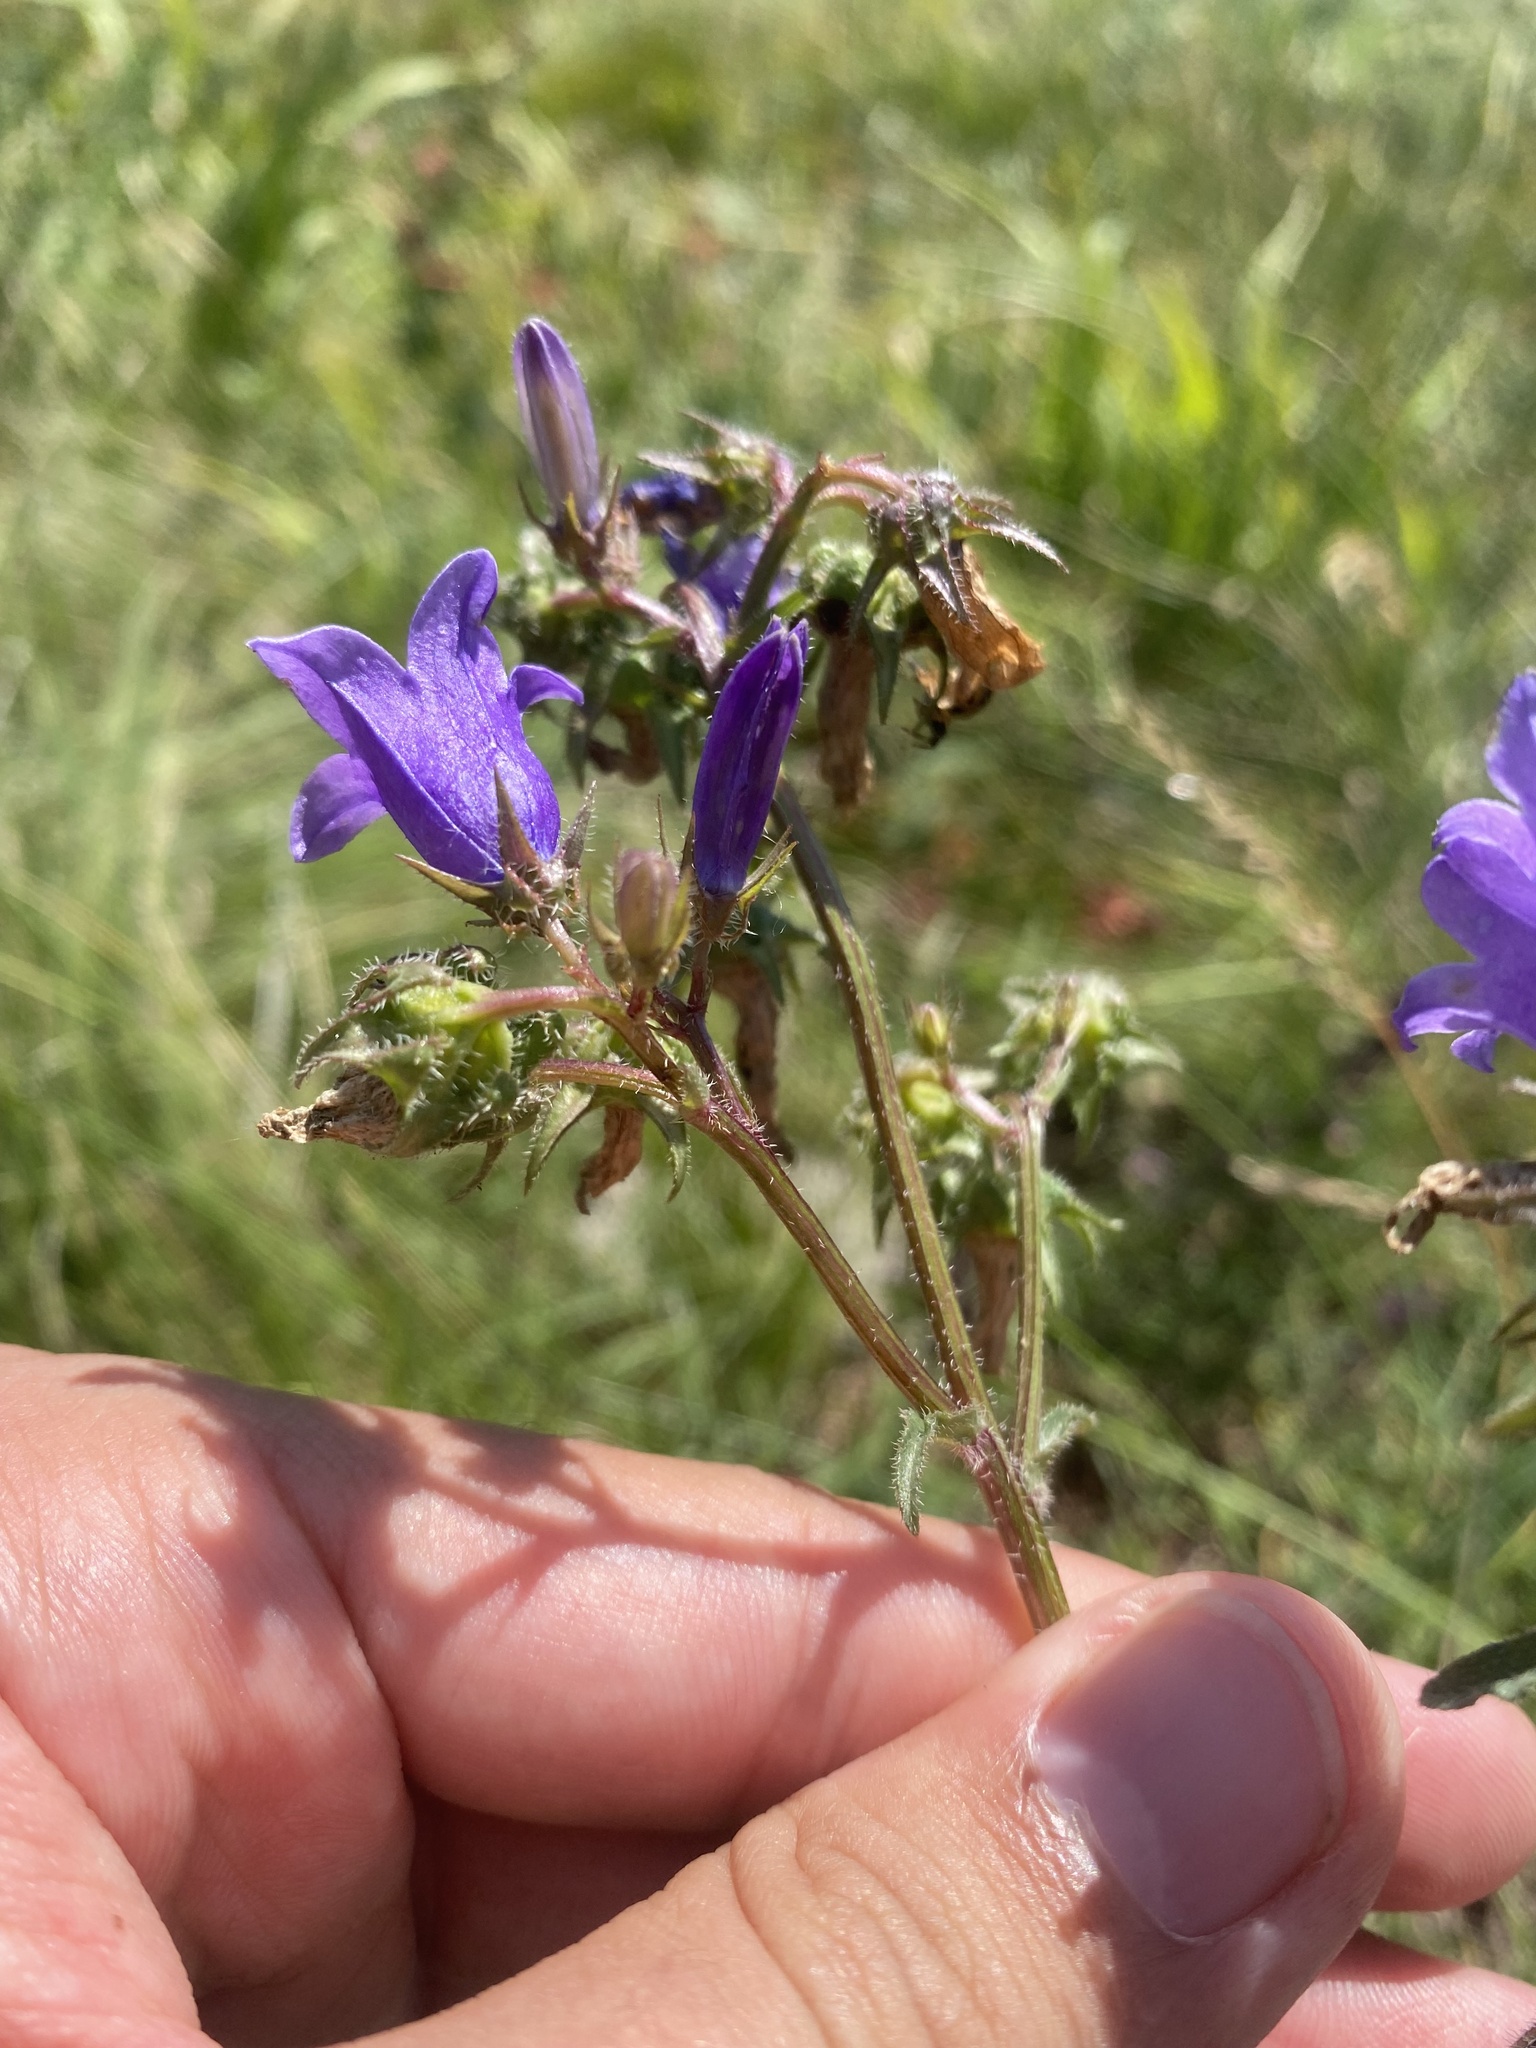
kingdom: Plantae
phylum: Tracheophyta
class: Magnoliopsida
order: Asterales
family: Campanulaceae
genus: Campanula
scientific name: Campanula sibirica
